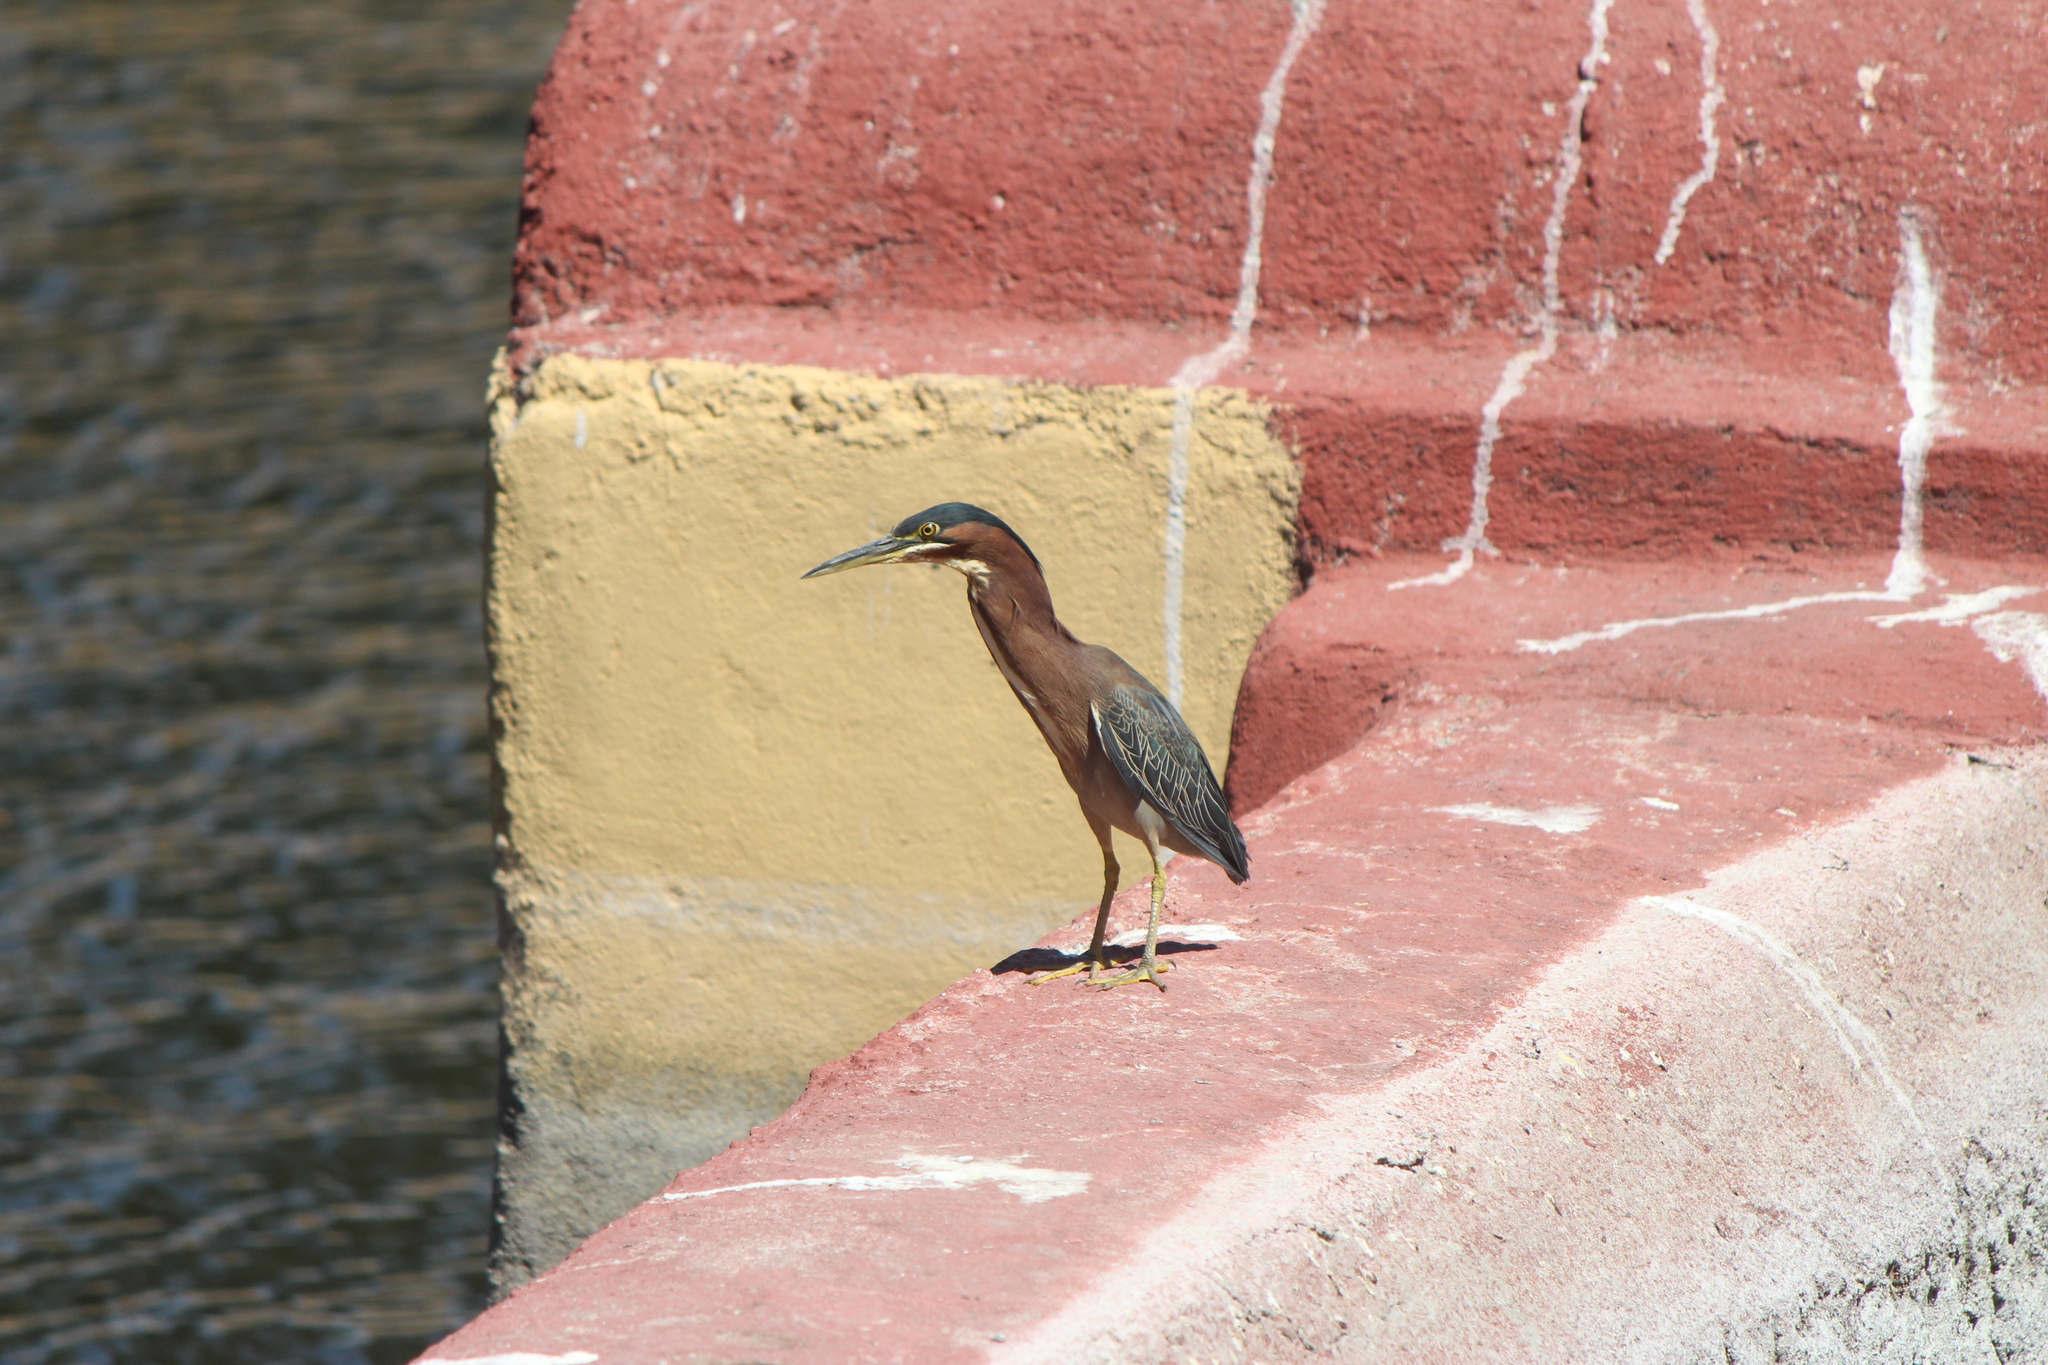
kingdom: Animalia
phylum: Chordata
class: Aves
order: Pelecaniformes
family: Ardeidae
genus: Butorides
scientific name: Butorides virescens
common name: Green heron
